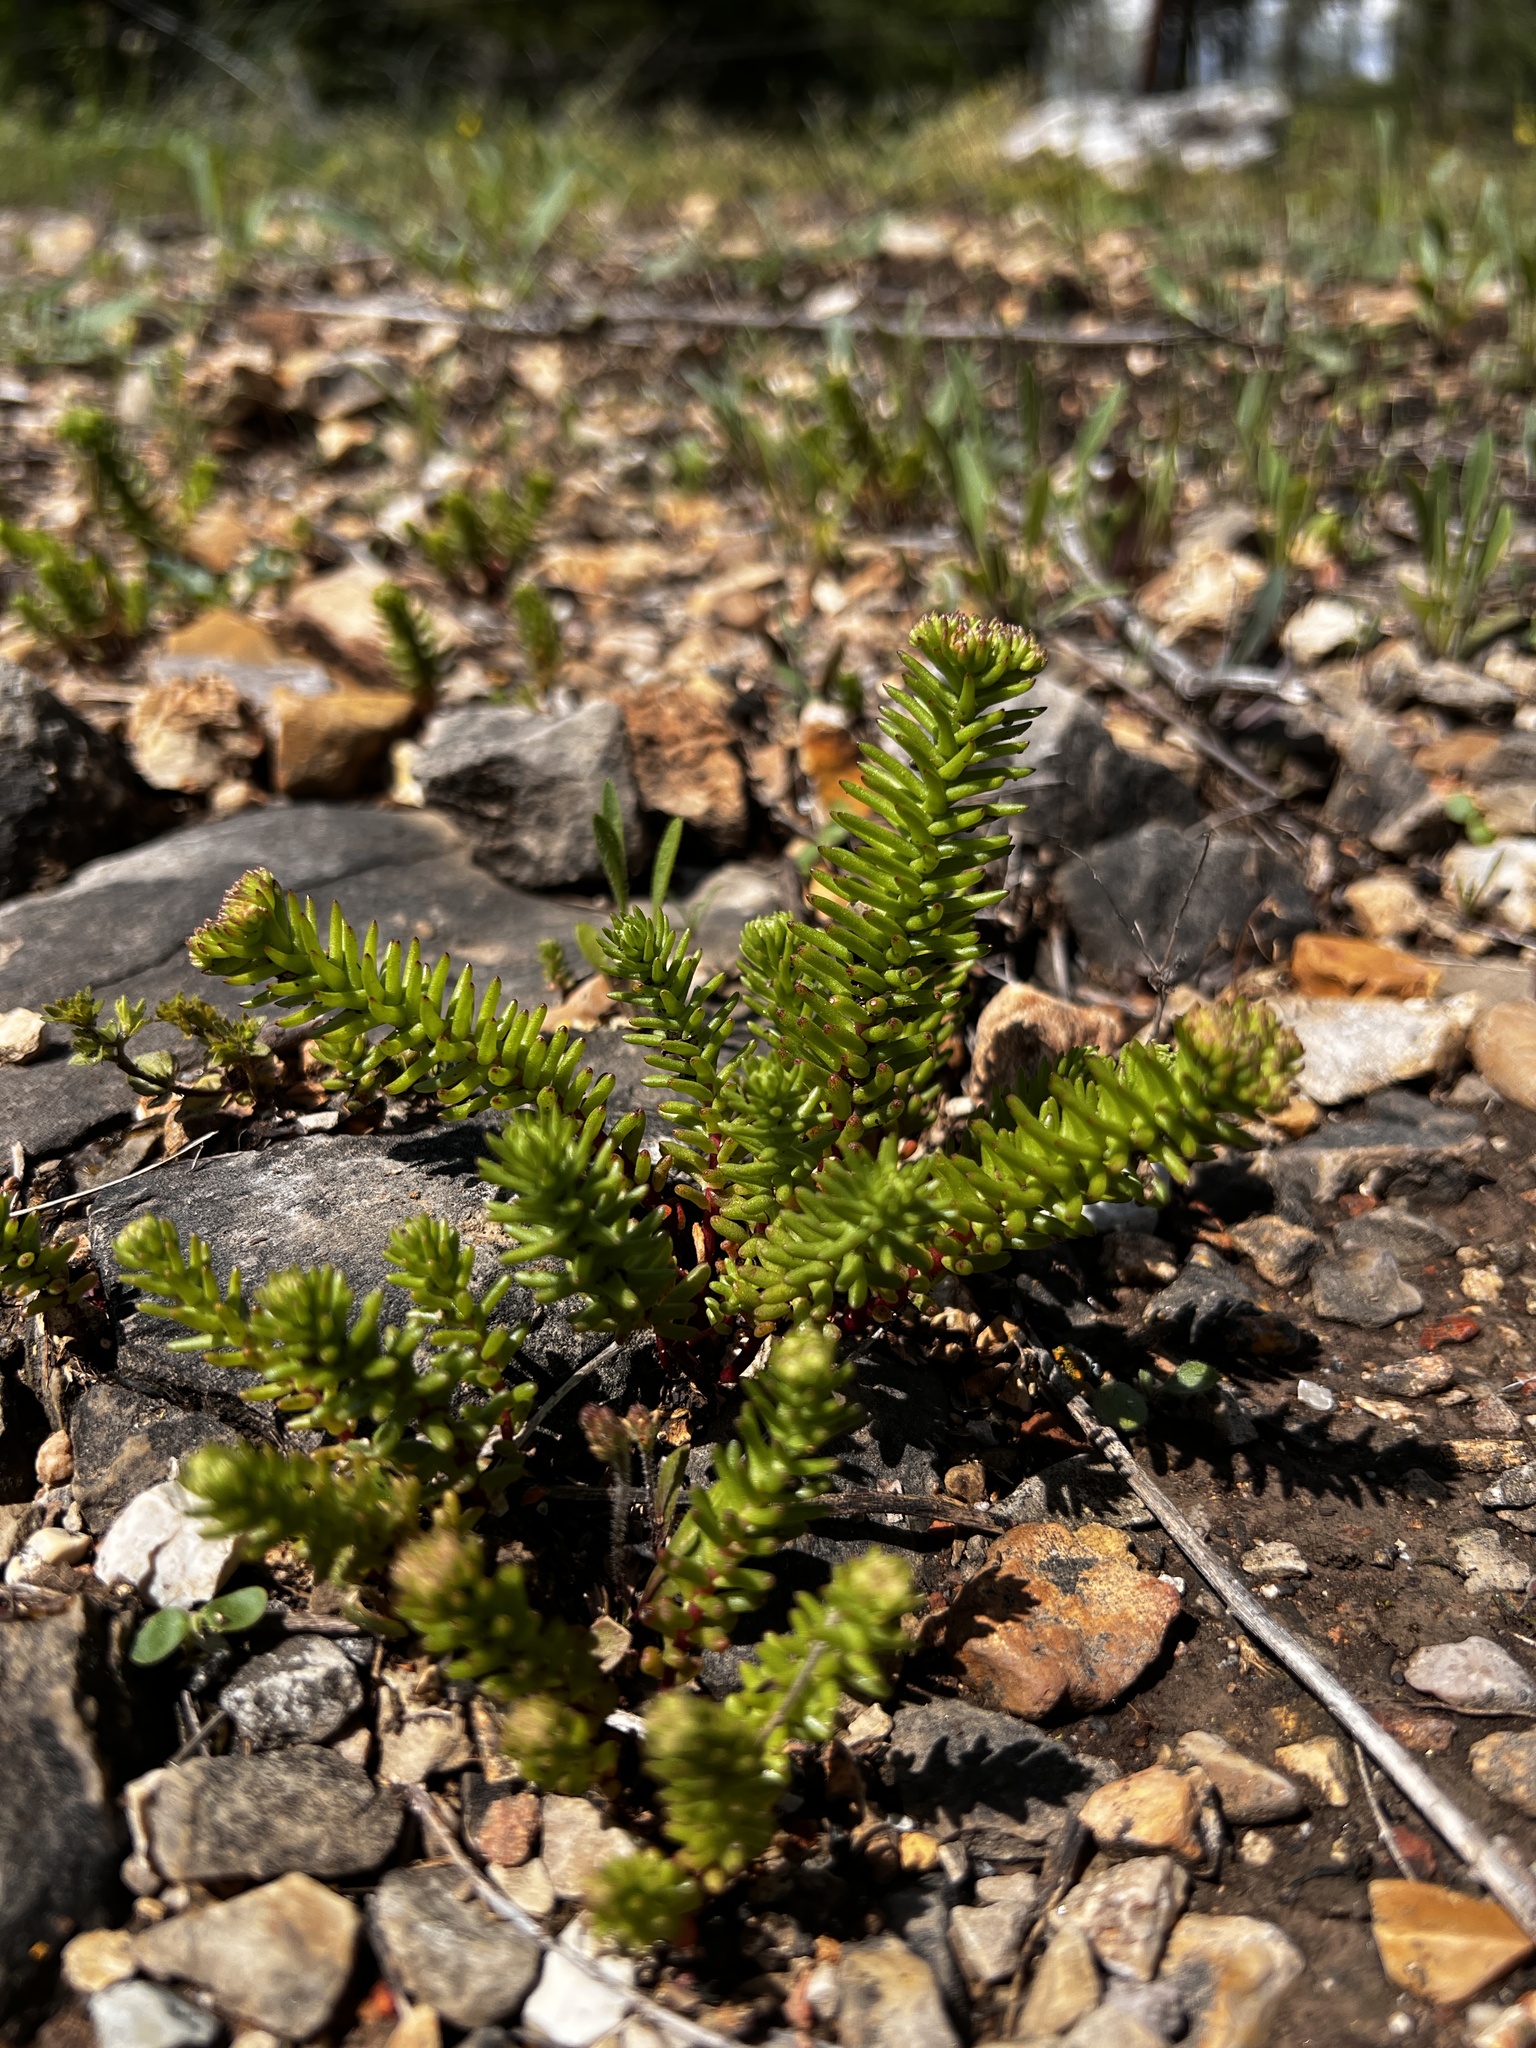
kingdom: Plantae
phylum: Tracheophyta
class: Magnoliopsida
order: Saxifragales
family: Crassulaceae
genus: Sedum
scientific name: Sedum pulchellum
